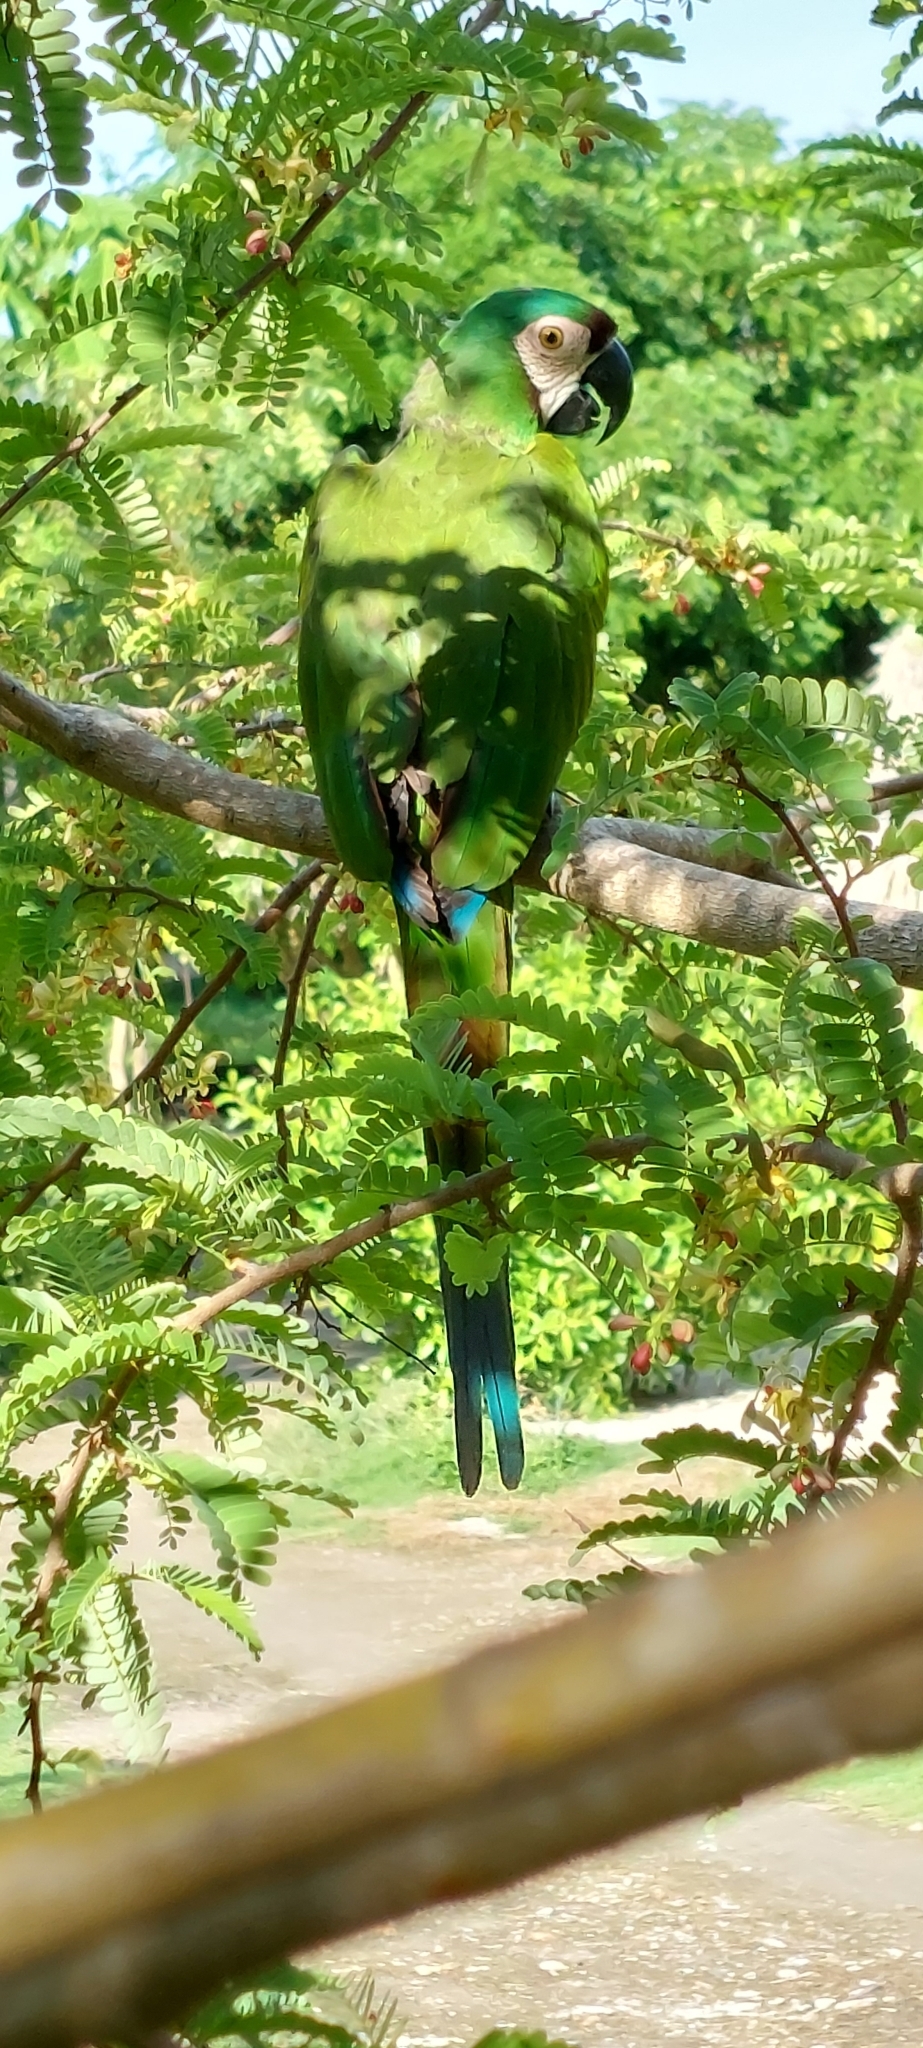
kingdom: Animalia
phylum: Chordata
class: Aves
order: Psittaciformes
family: Psittacidae
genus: Ara
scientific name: Ara severus
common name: Chestnut-fronted macaw
